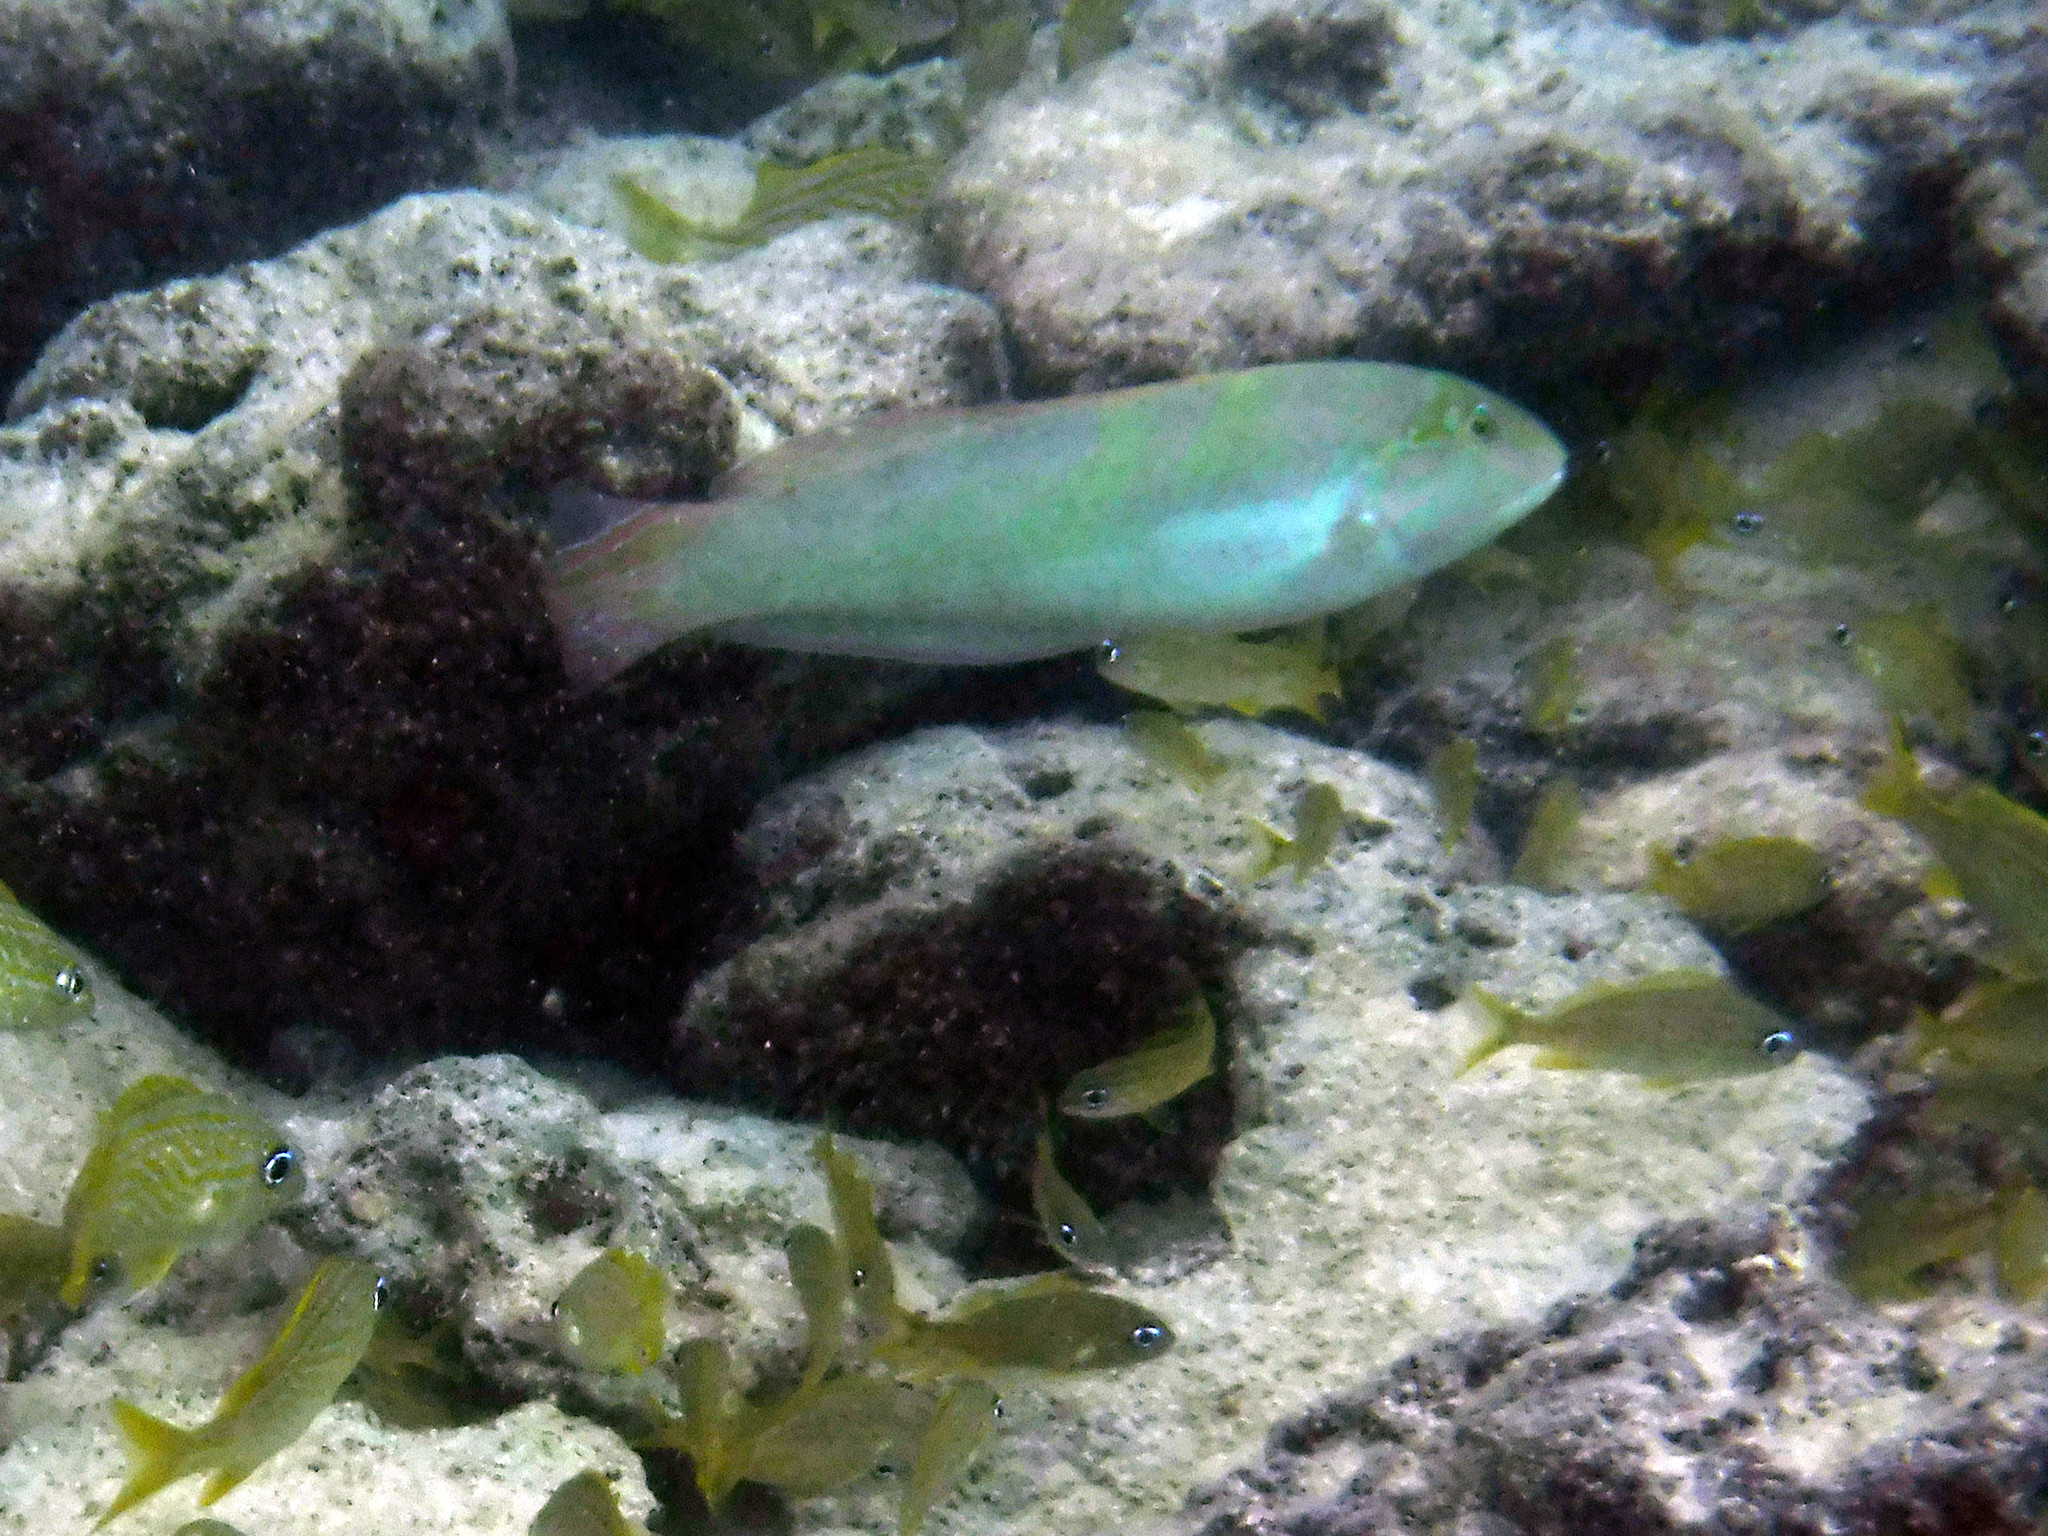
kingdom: Animalia
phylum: Chordata
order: Perciformes
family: Labridae
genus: Halichoeres
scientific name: Halichoeres poeyi
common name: Blackear wrasse
